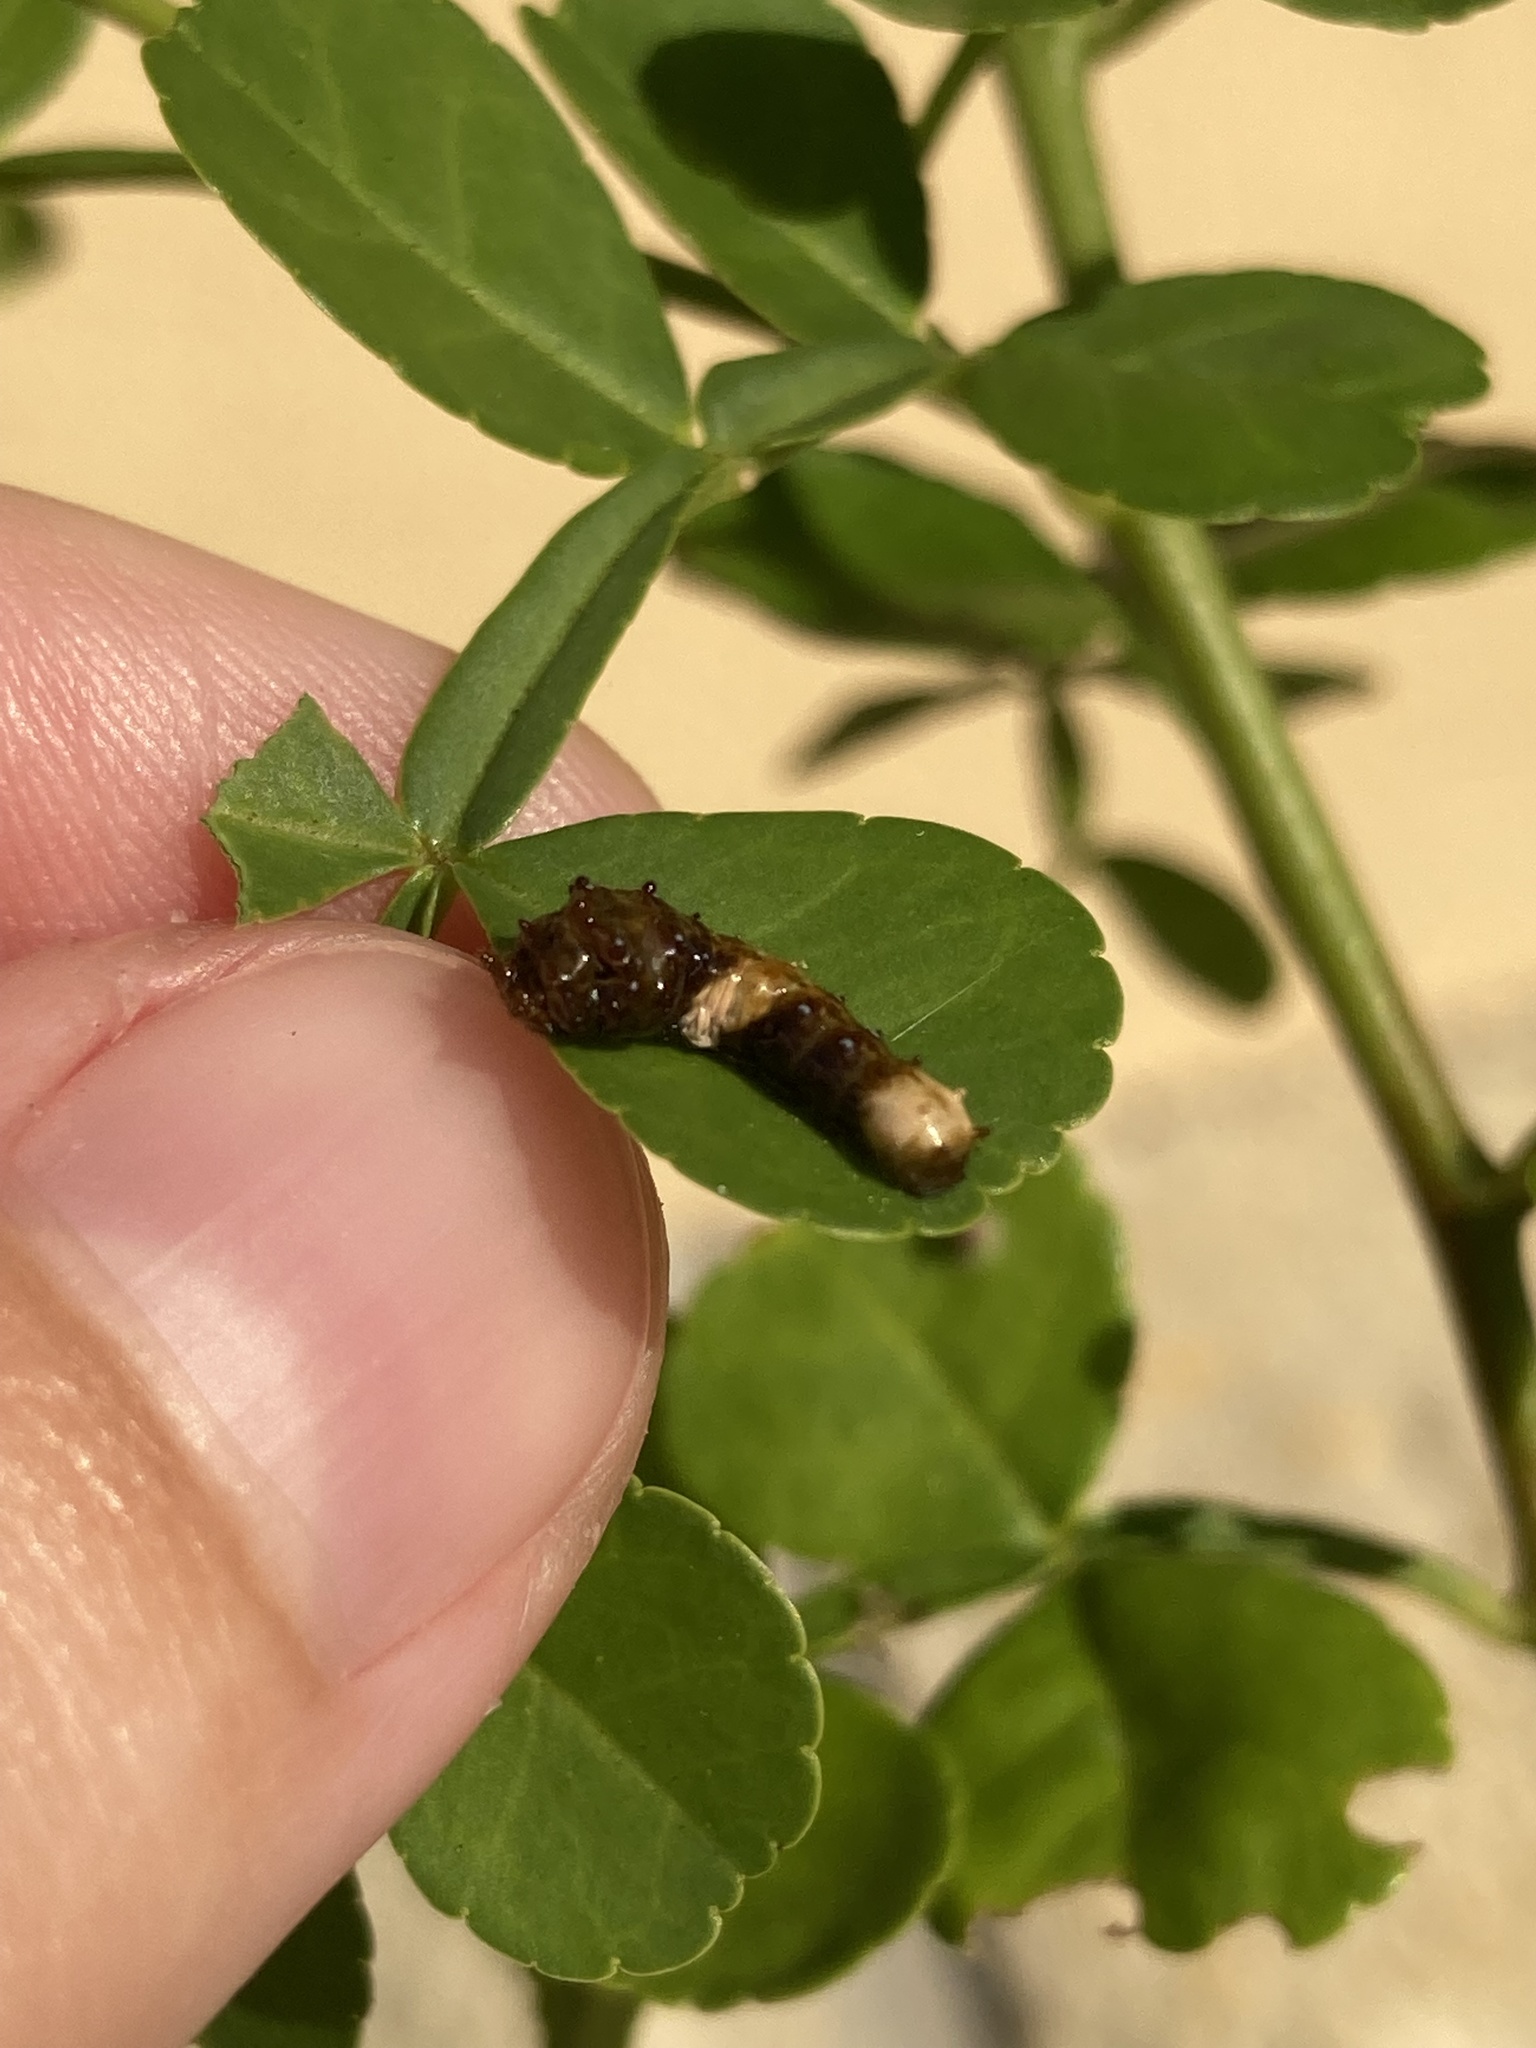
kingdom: Animalia
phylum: Arthropoda
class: Insecta
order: Lepidoptera
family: Papilionidae
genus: Papilio
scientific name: Papilio cresphontes
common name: Giant swallowtail
